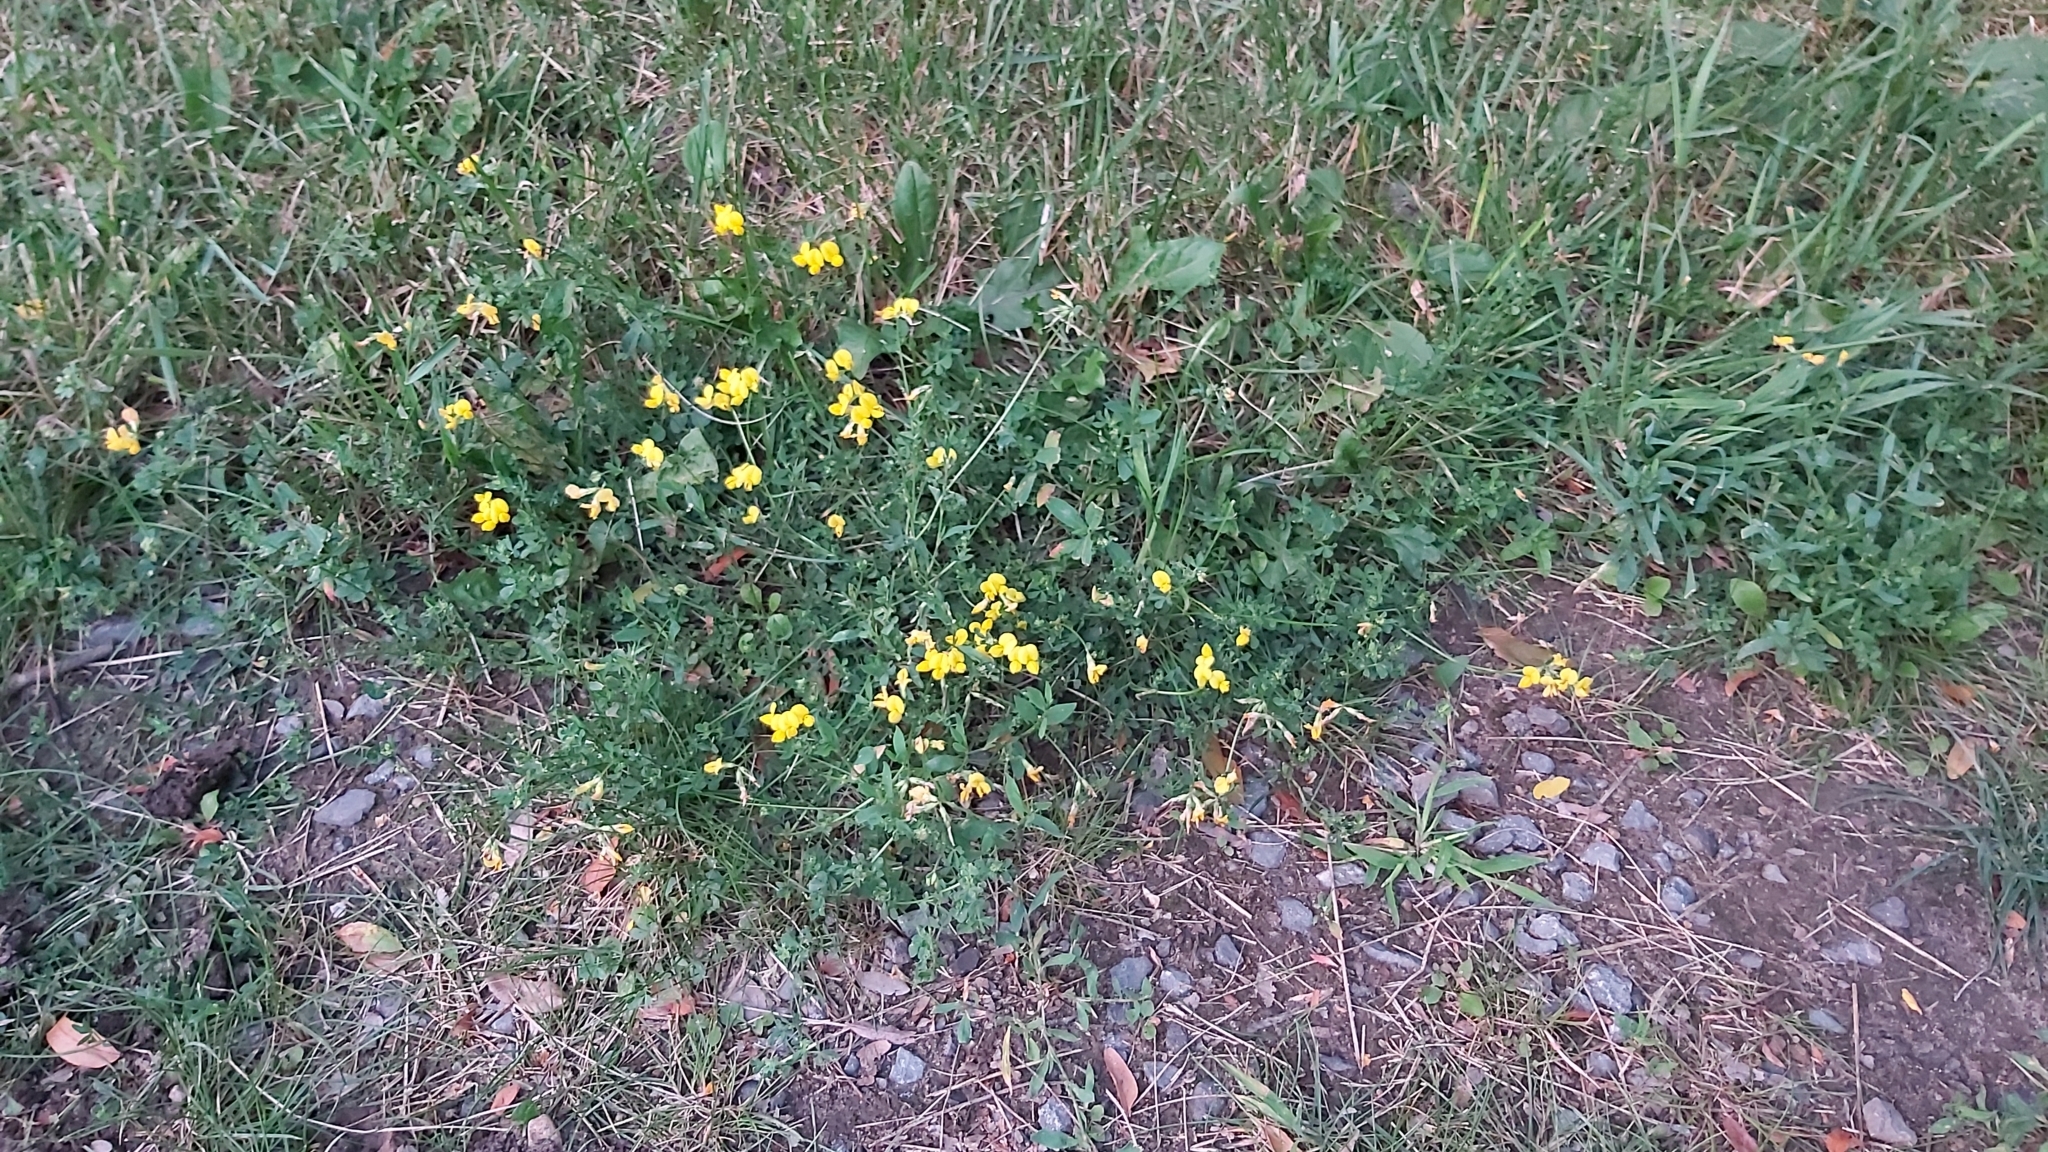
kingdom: Plantae
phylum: Tracheophyta
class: Magnoliopsida
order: Fabales
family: Fabaceae
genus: Lotus
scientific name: Lotus corniculatus
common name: Common bird's-foot-trefoil
